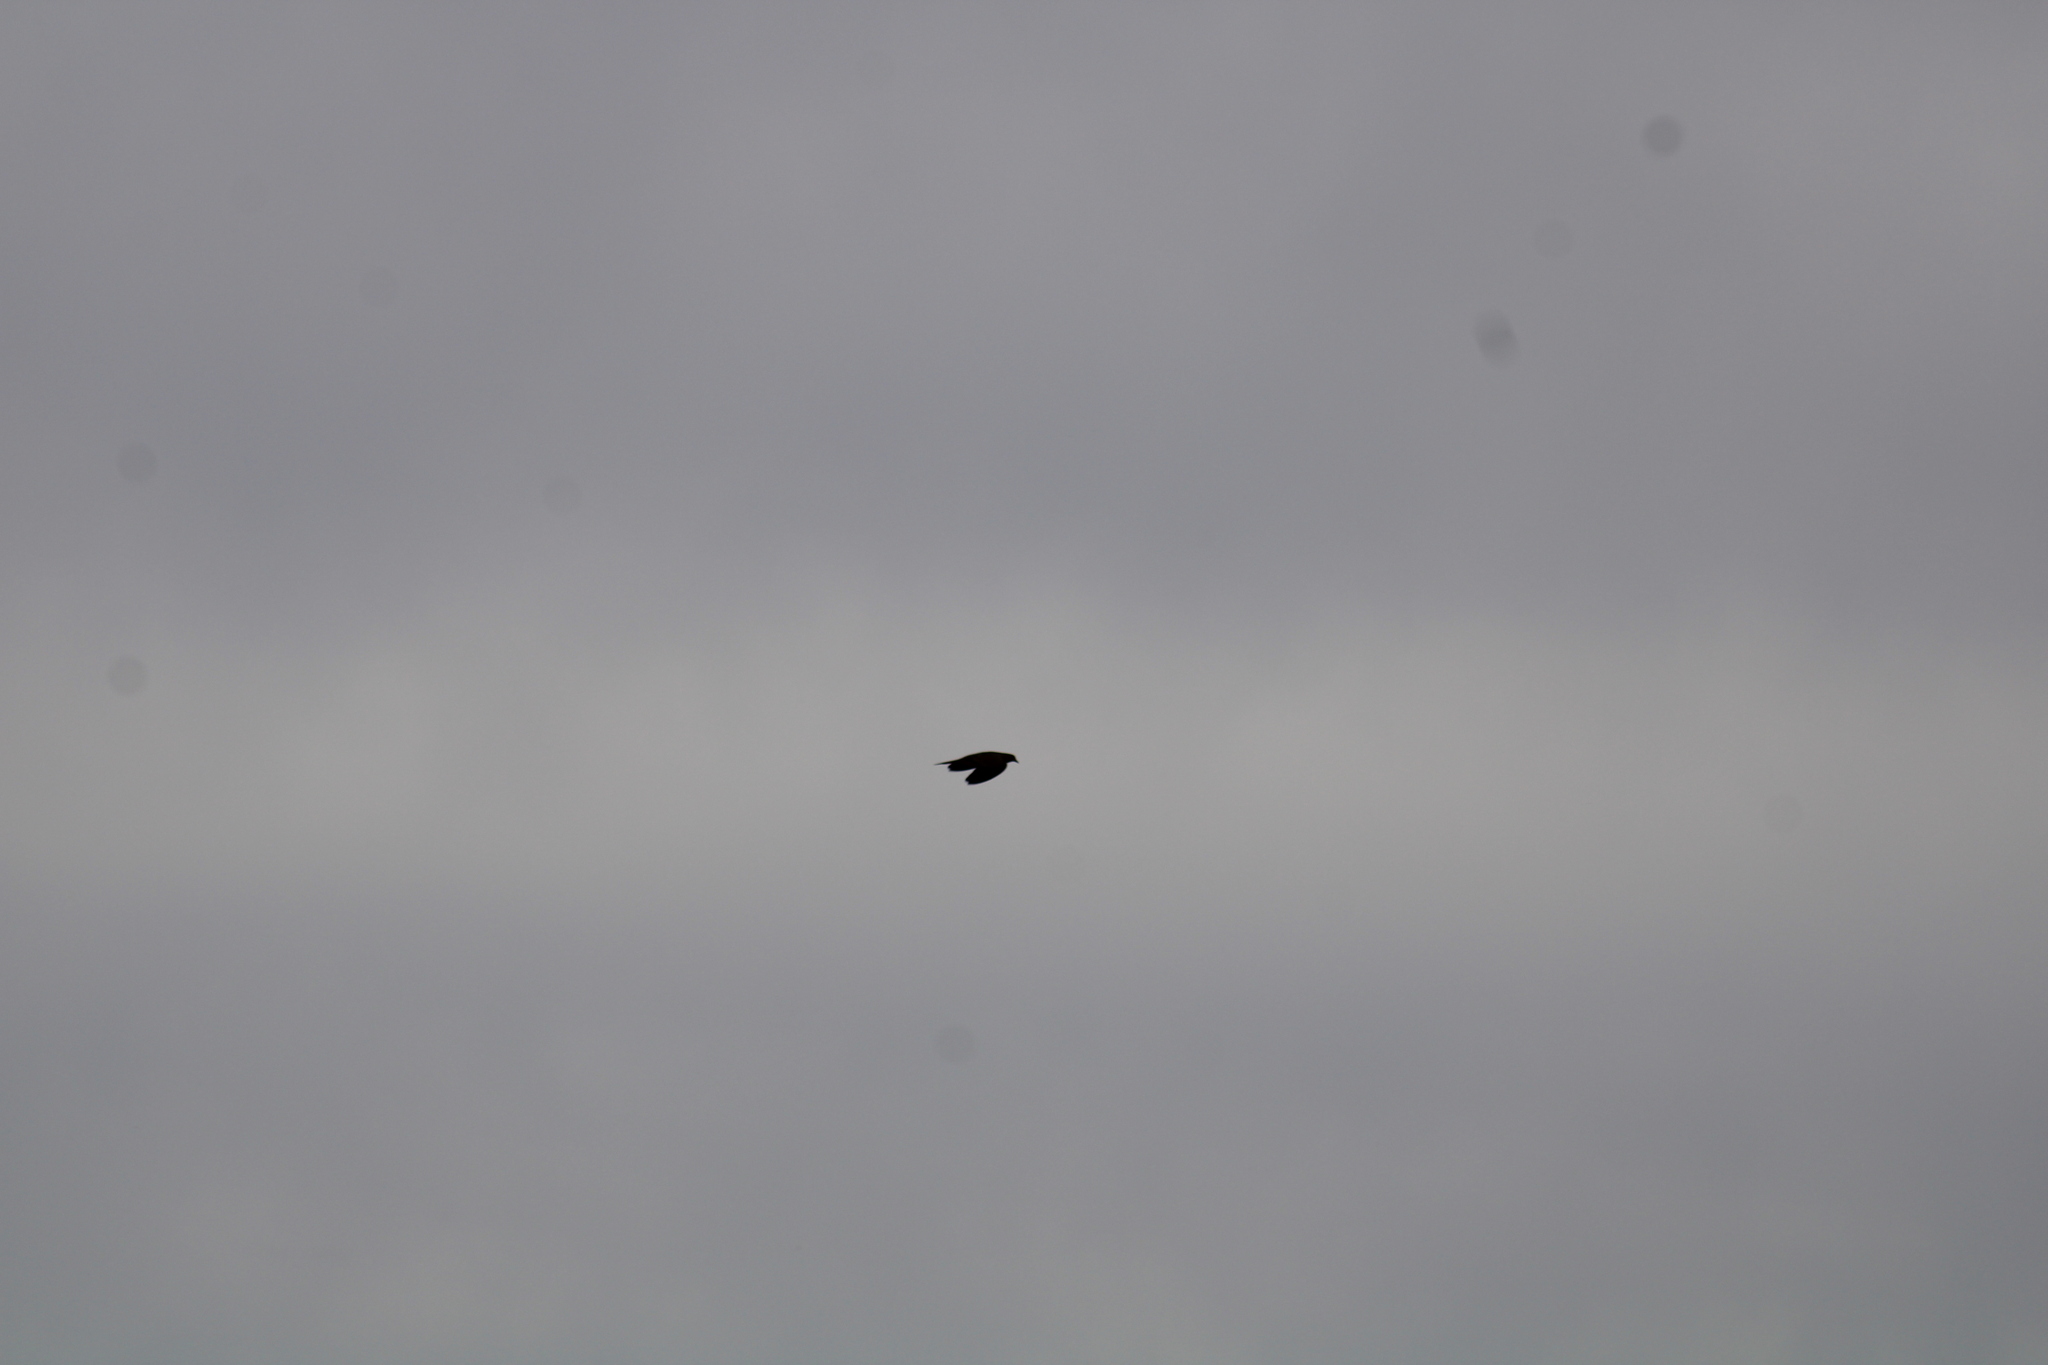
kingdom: Animalia
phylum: Chordata
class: Aves
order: Passeriformes
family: Hirundinidae
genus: Tachycineta
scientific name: Tachycineta bicolor
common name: Tree swallow
